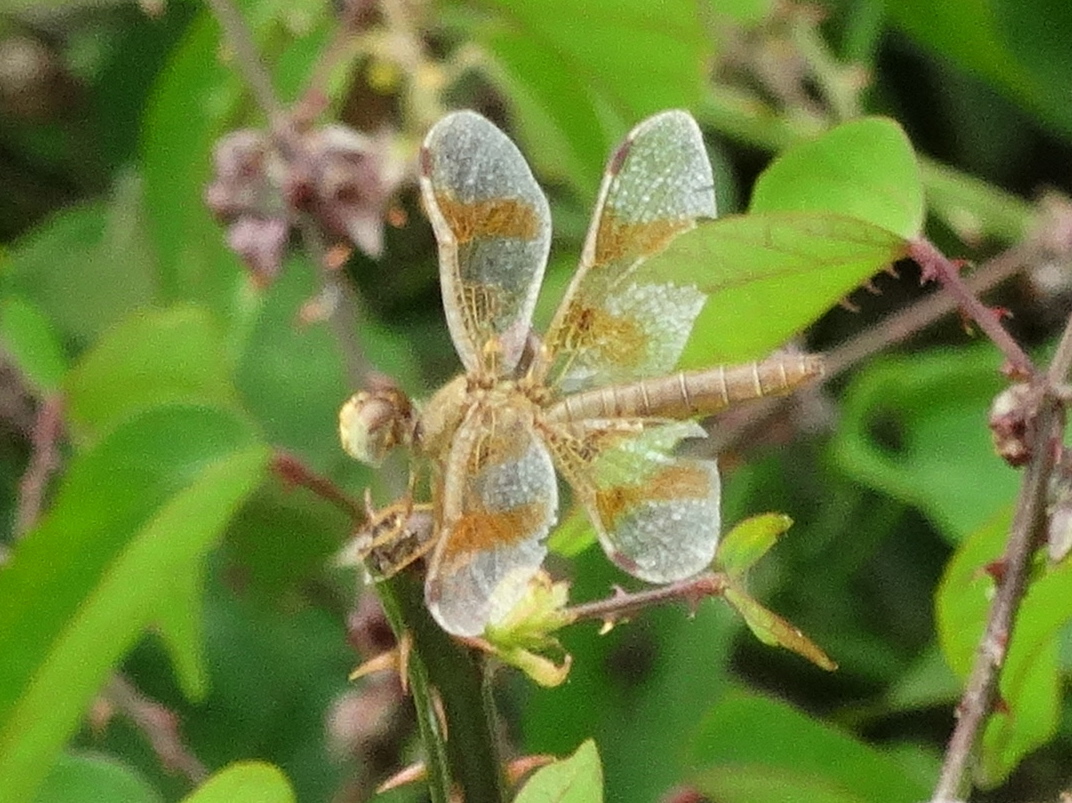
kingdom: Animalia
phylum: Arthropoda
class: Insecta
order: Odonata
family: Libellulidae
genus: Perithemis
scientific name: Perithemis intensa
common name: Mexican amberwing
